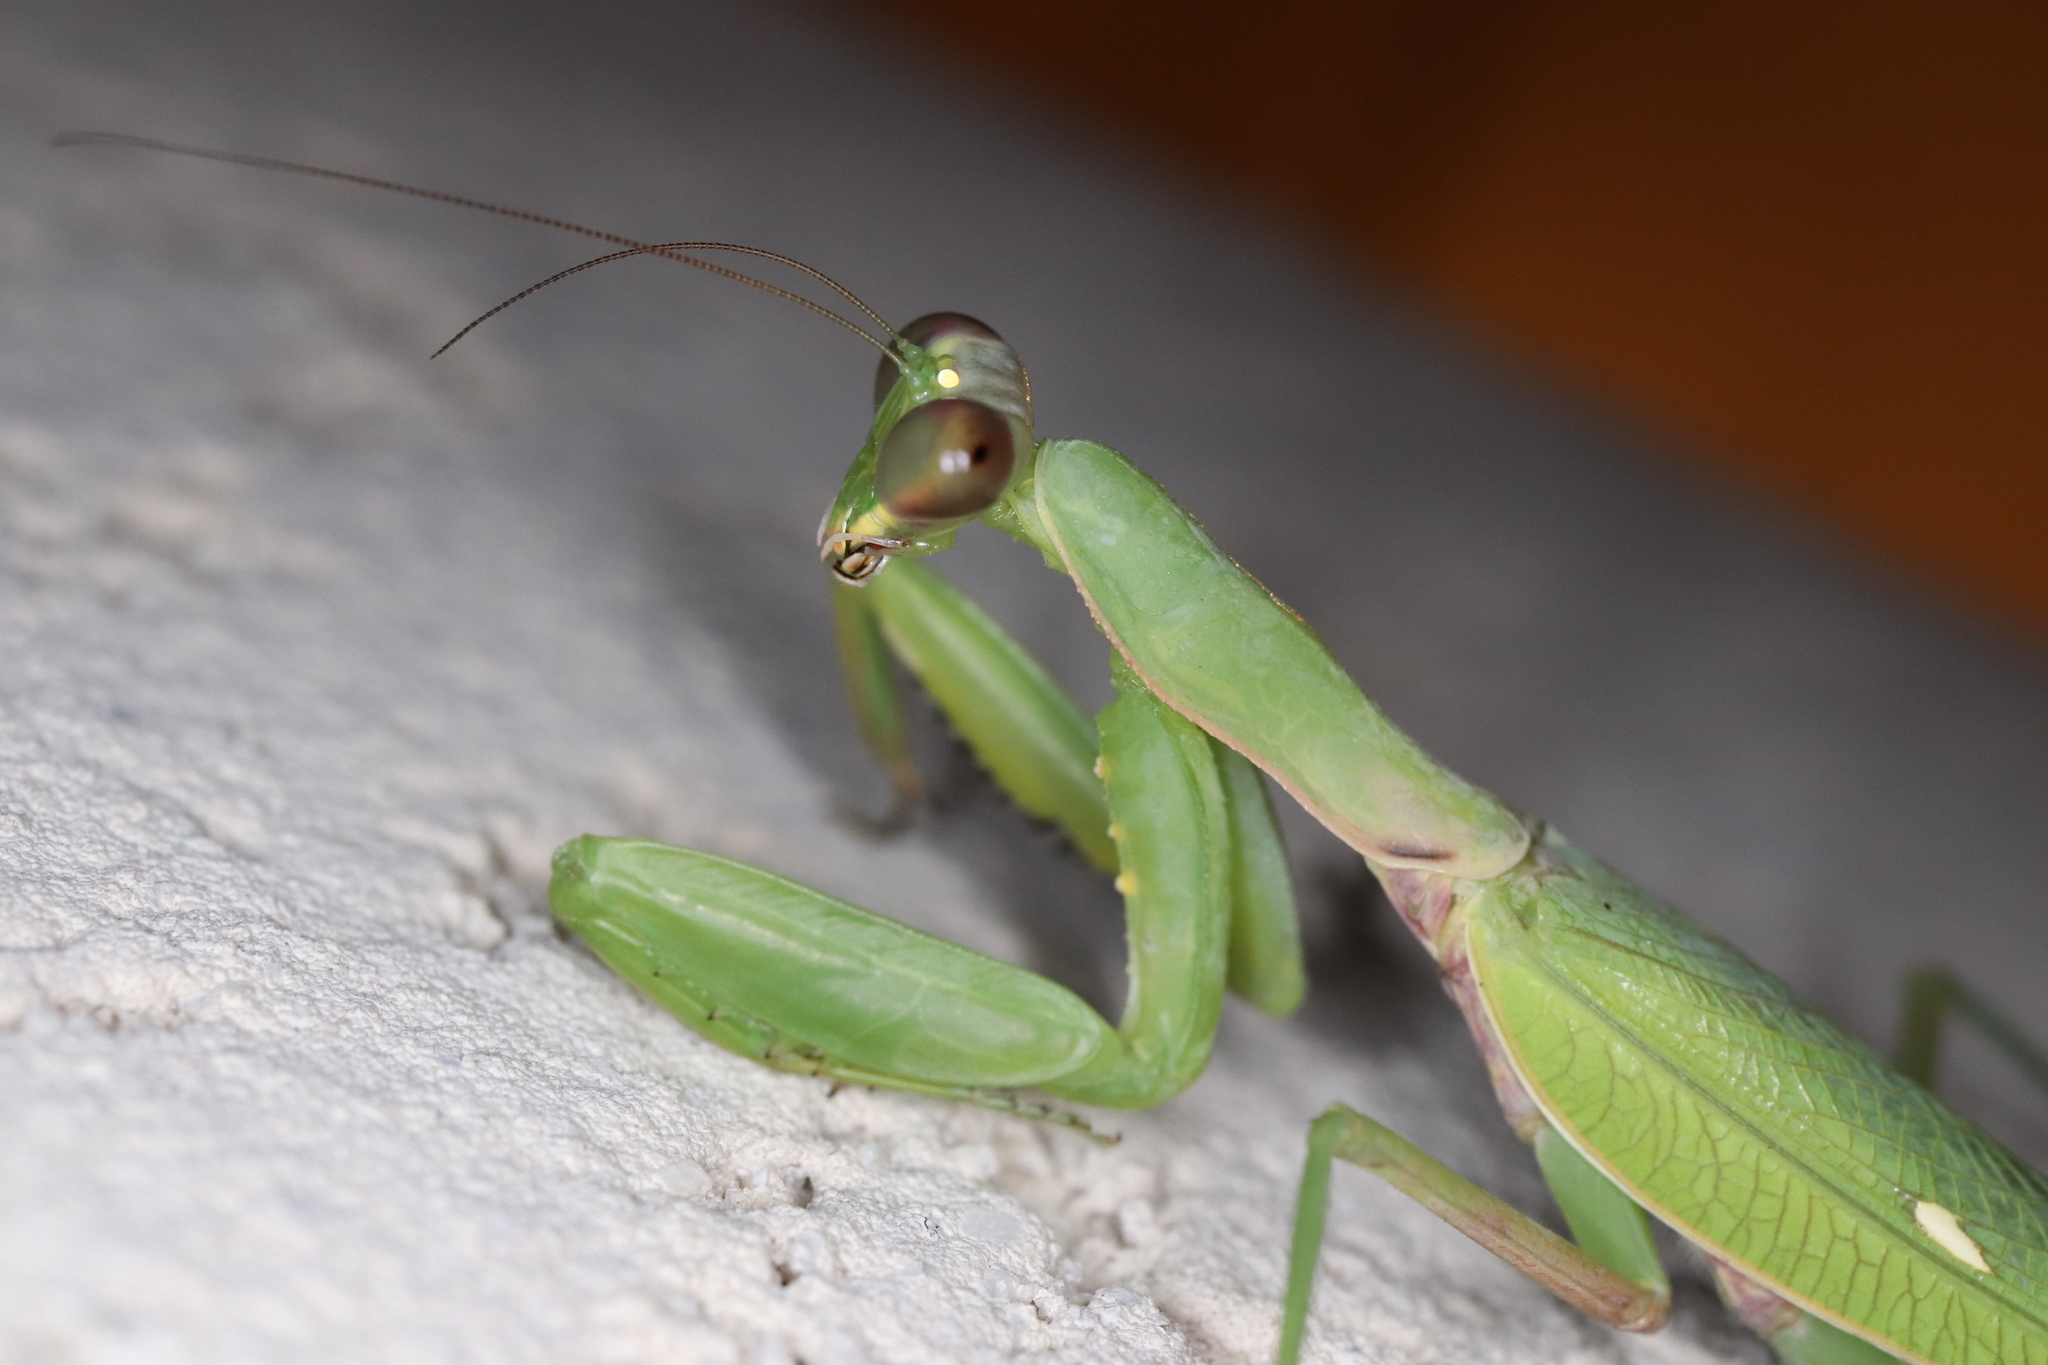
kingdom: Animalia
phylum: Arthropoda
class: Insecta
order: Mantodea
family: Mantidae
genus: Hierodula
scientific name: Hierodula patellifera
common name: Asian mantis
